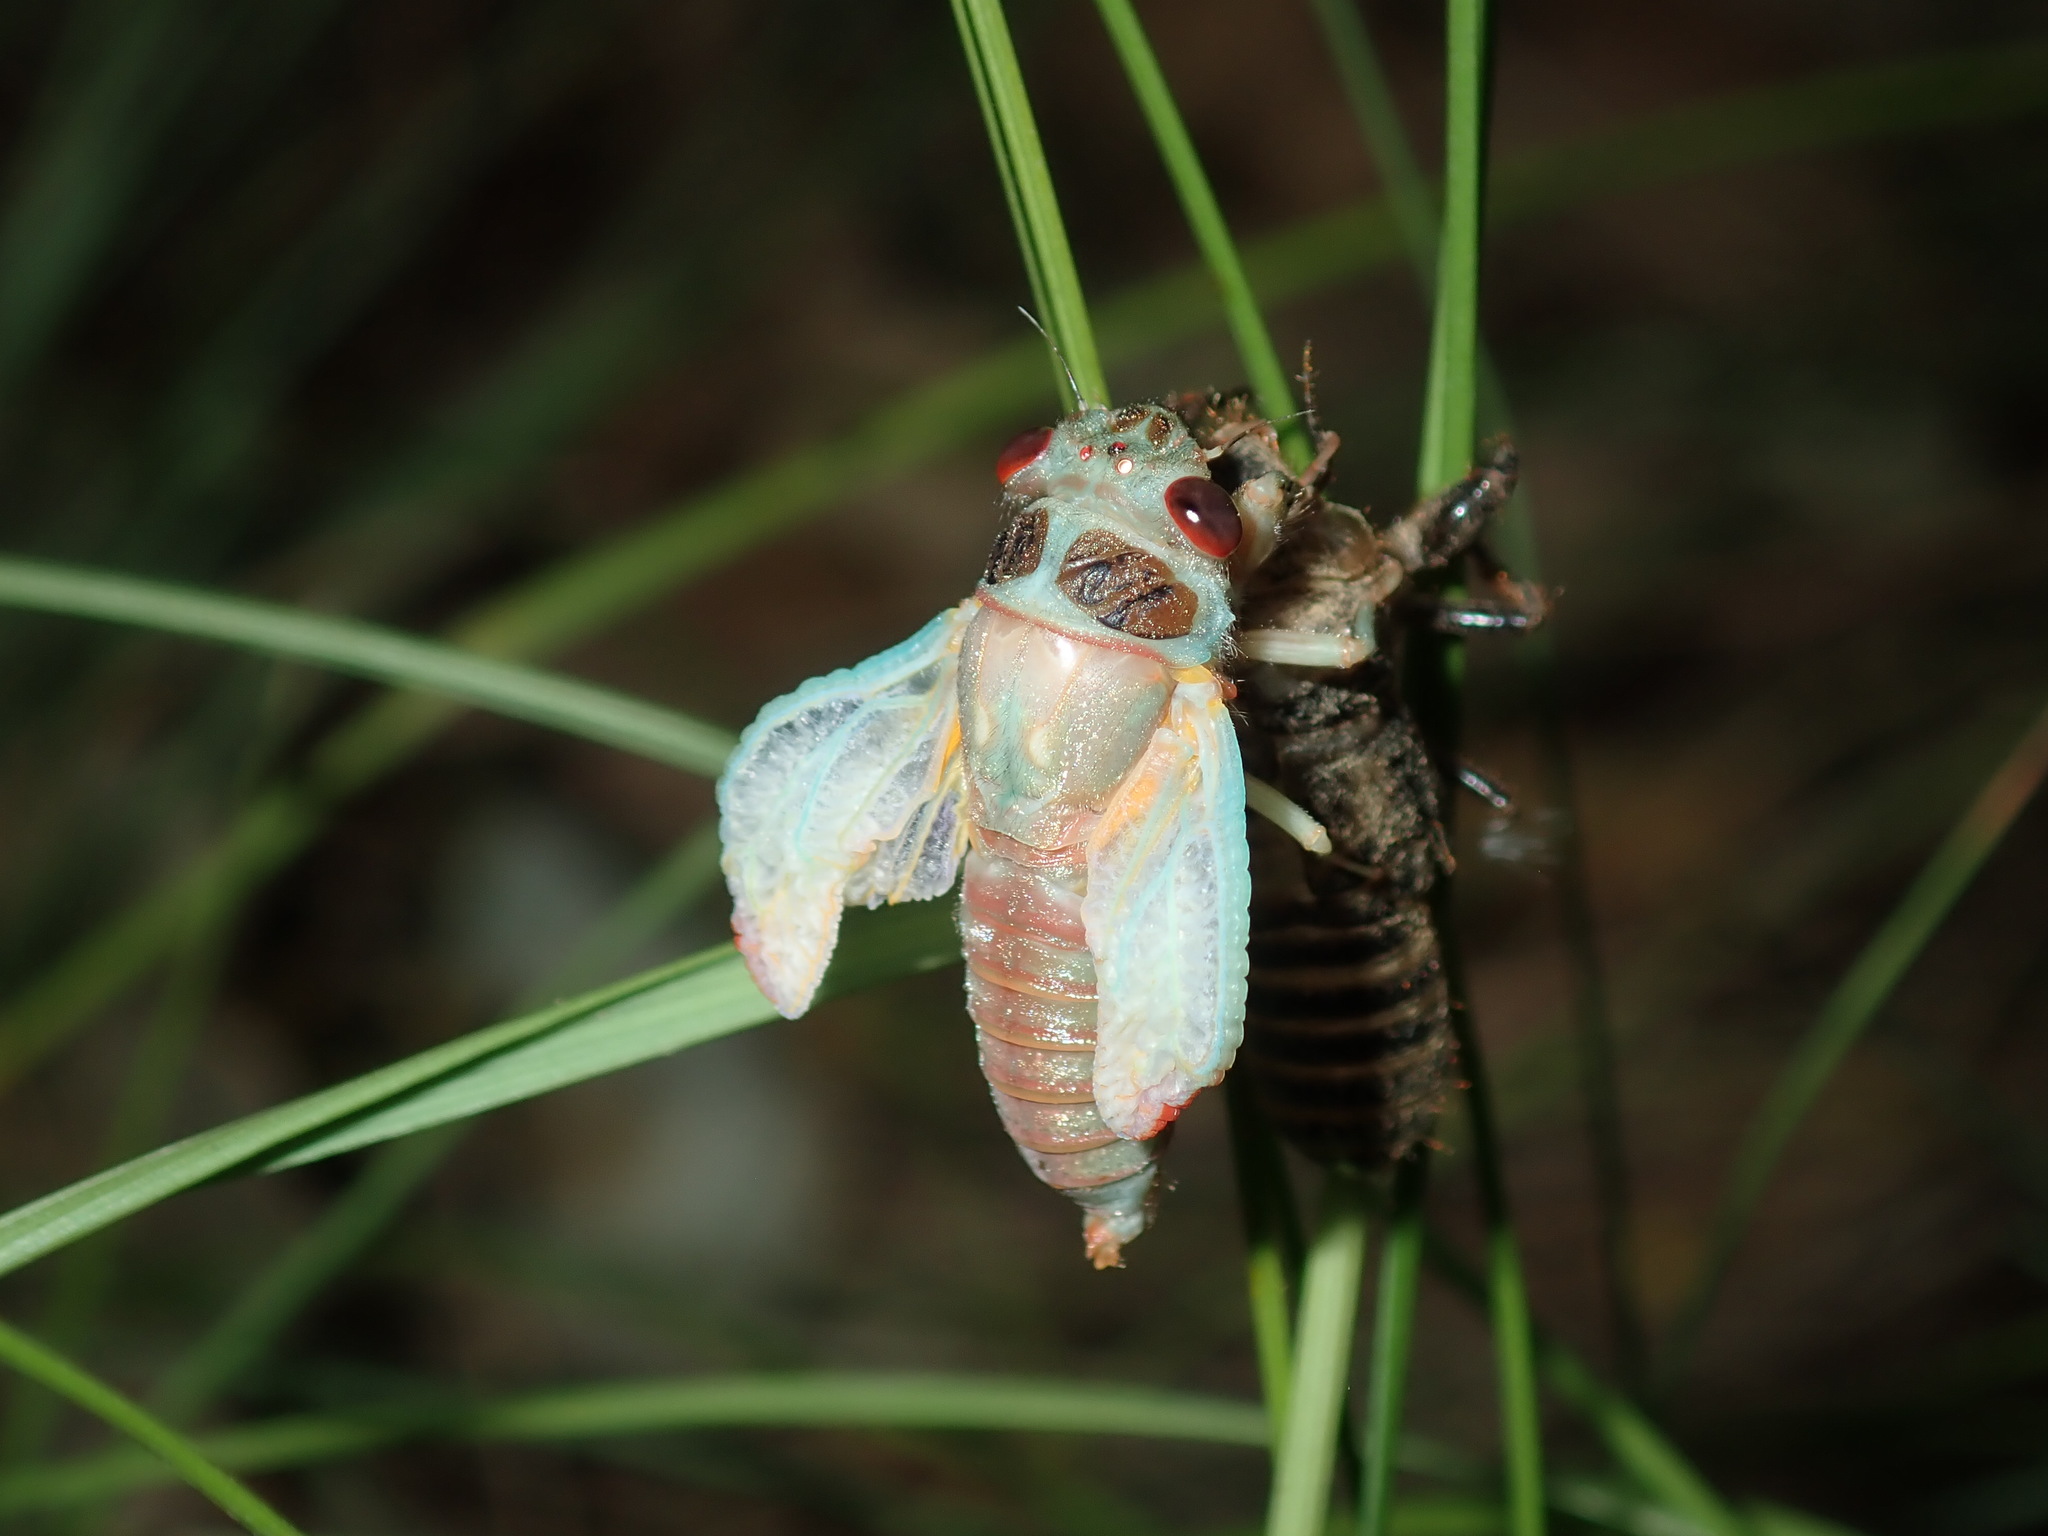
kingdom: Animalia
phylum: Arthropoda
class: Insecta
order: Hemiptera
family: Cicadidae
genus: Popplepsalta
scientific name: Popplepsalta notialis
